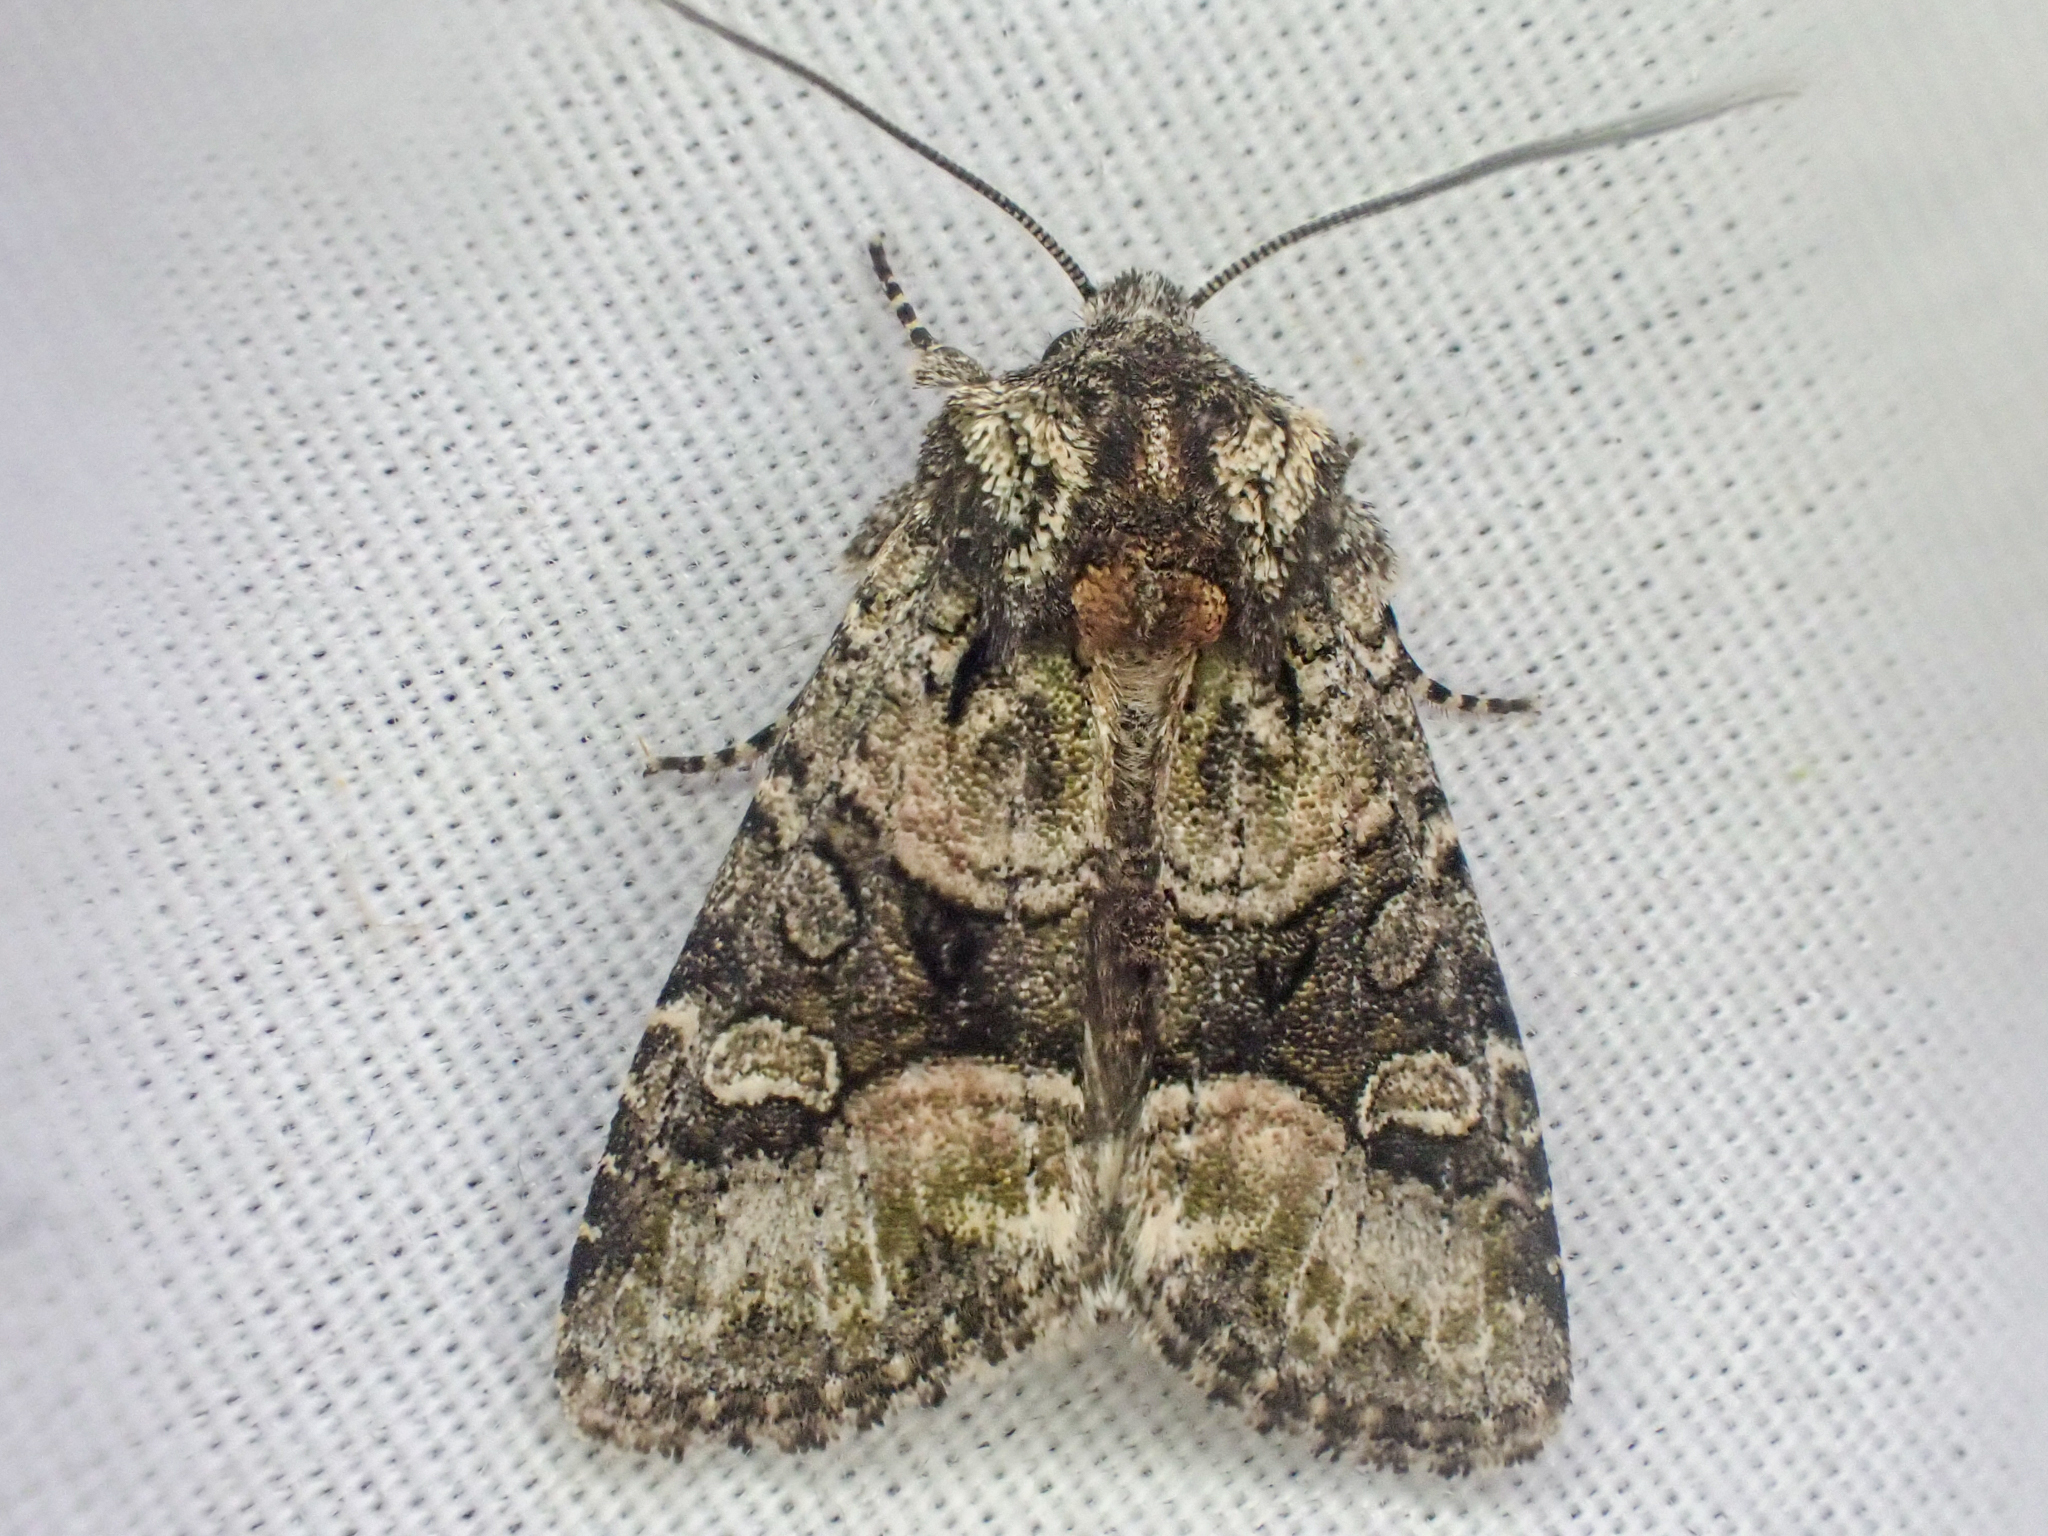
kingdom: Animalia
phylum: Arthropoda
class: Insecta
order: Lepidoptera
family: Noctuidae
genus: Lacinipolia
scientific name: Lacinipolia olivacea
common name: Olive arches moth
